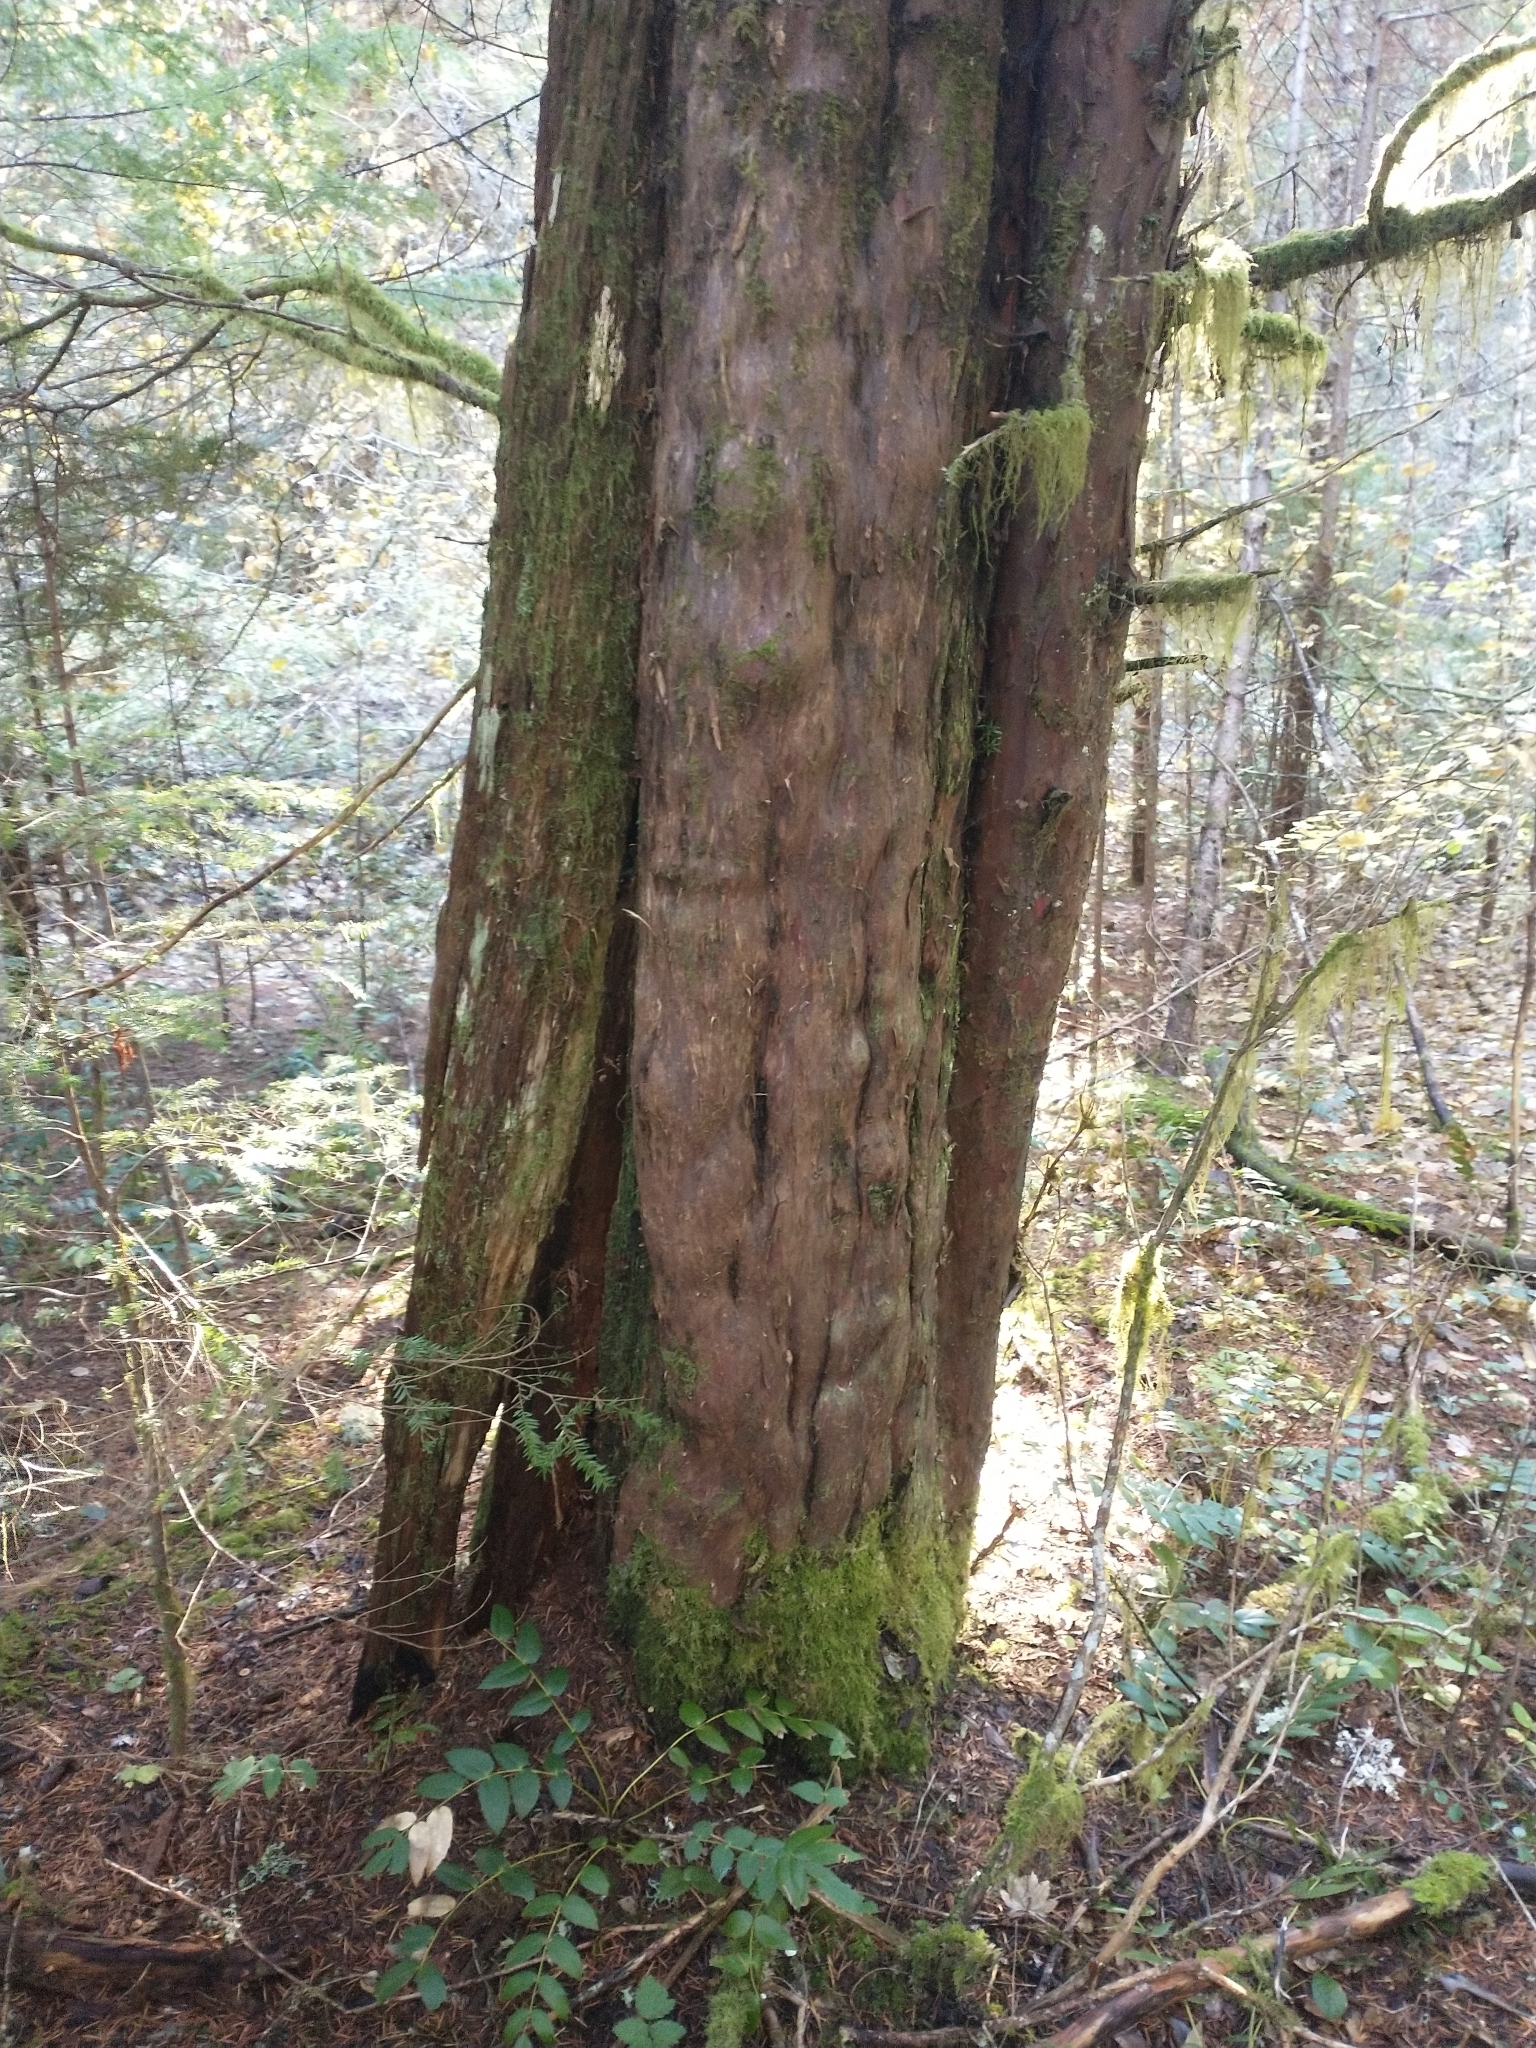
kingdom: Plantae
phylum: Tracheophyta
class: Pinopsida
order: Pinales
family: Taxaceae
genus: Taxus
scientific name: Taxus brevifolia
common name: Pacific yew
